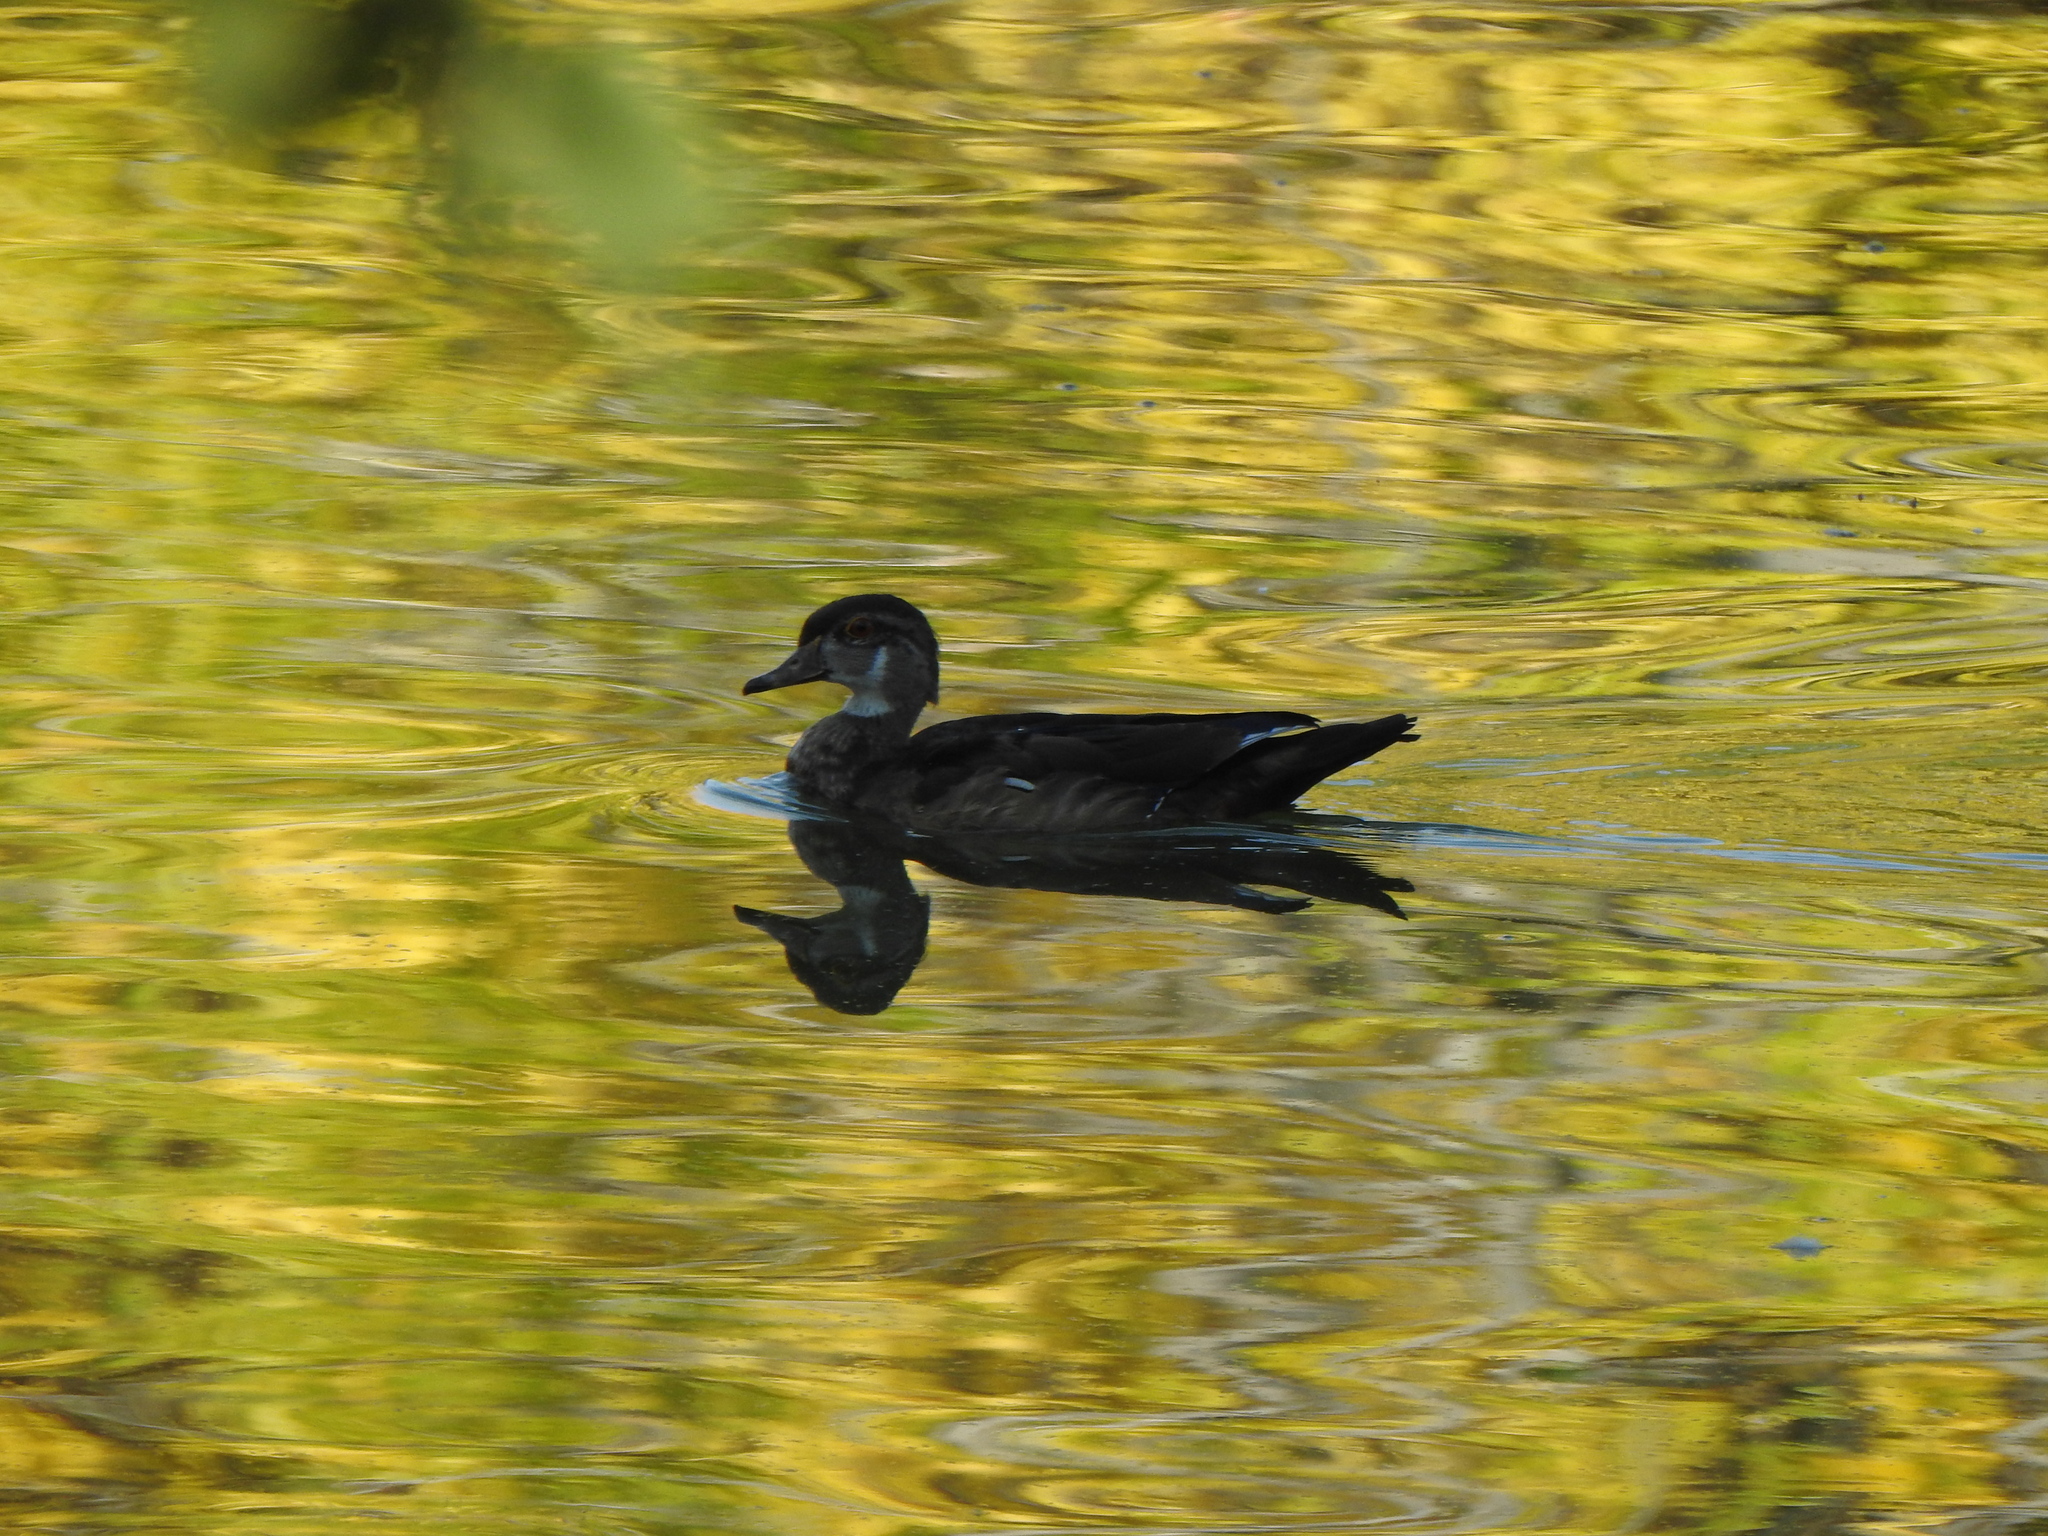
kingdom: Animalia
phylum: Chordata
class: Aves
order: Anseriformes
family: Anatidae
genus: Aix
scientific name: Aix sponsa
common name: Wood duck
